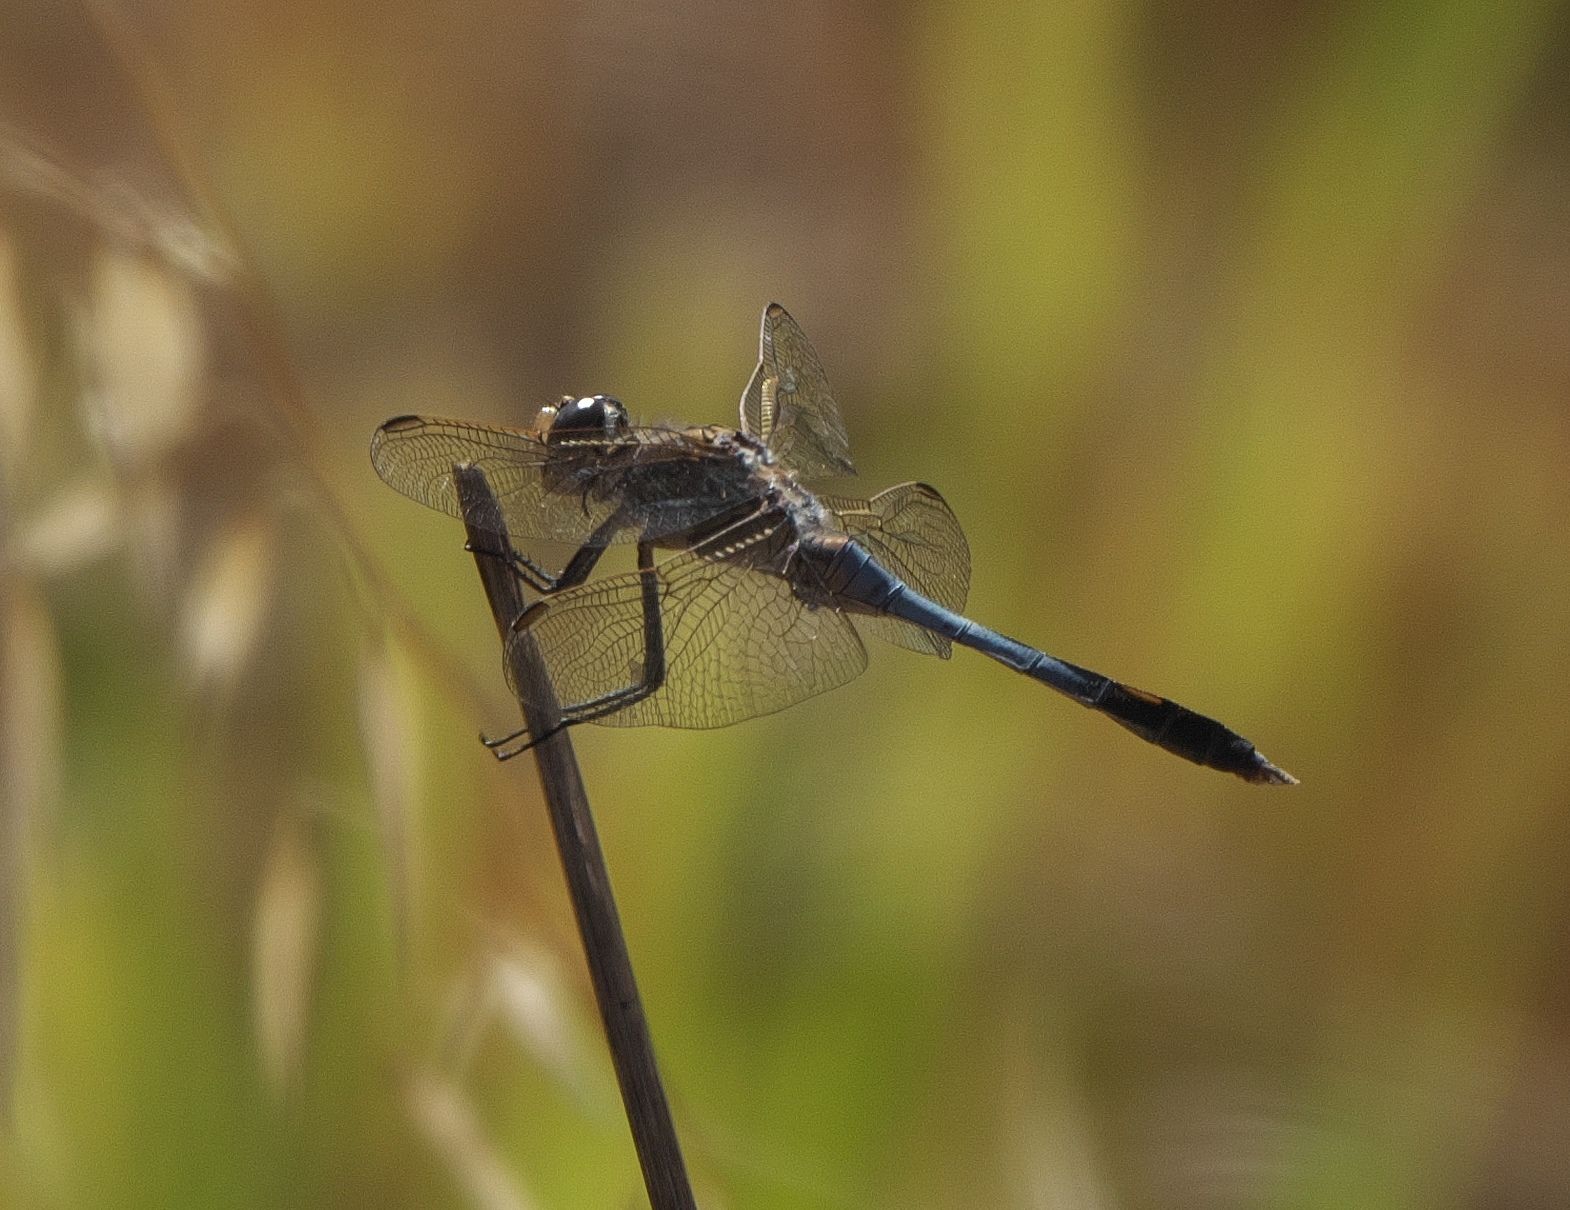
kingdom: Animalia
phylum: Arthropoda
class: Insecta
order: Odonata
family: Libellulidae
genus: Orthetrum
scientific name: Orthetrum caledonicum
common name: Blue skimmer
